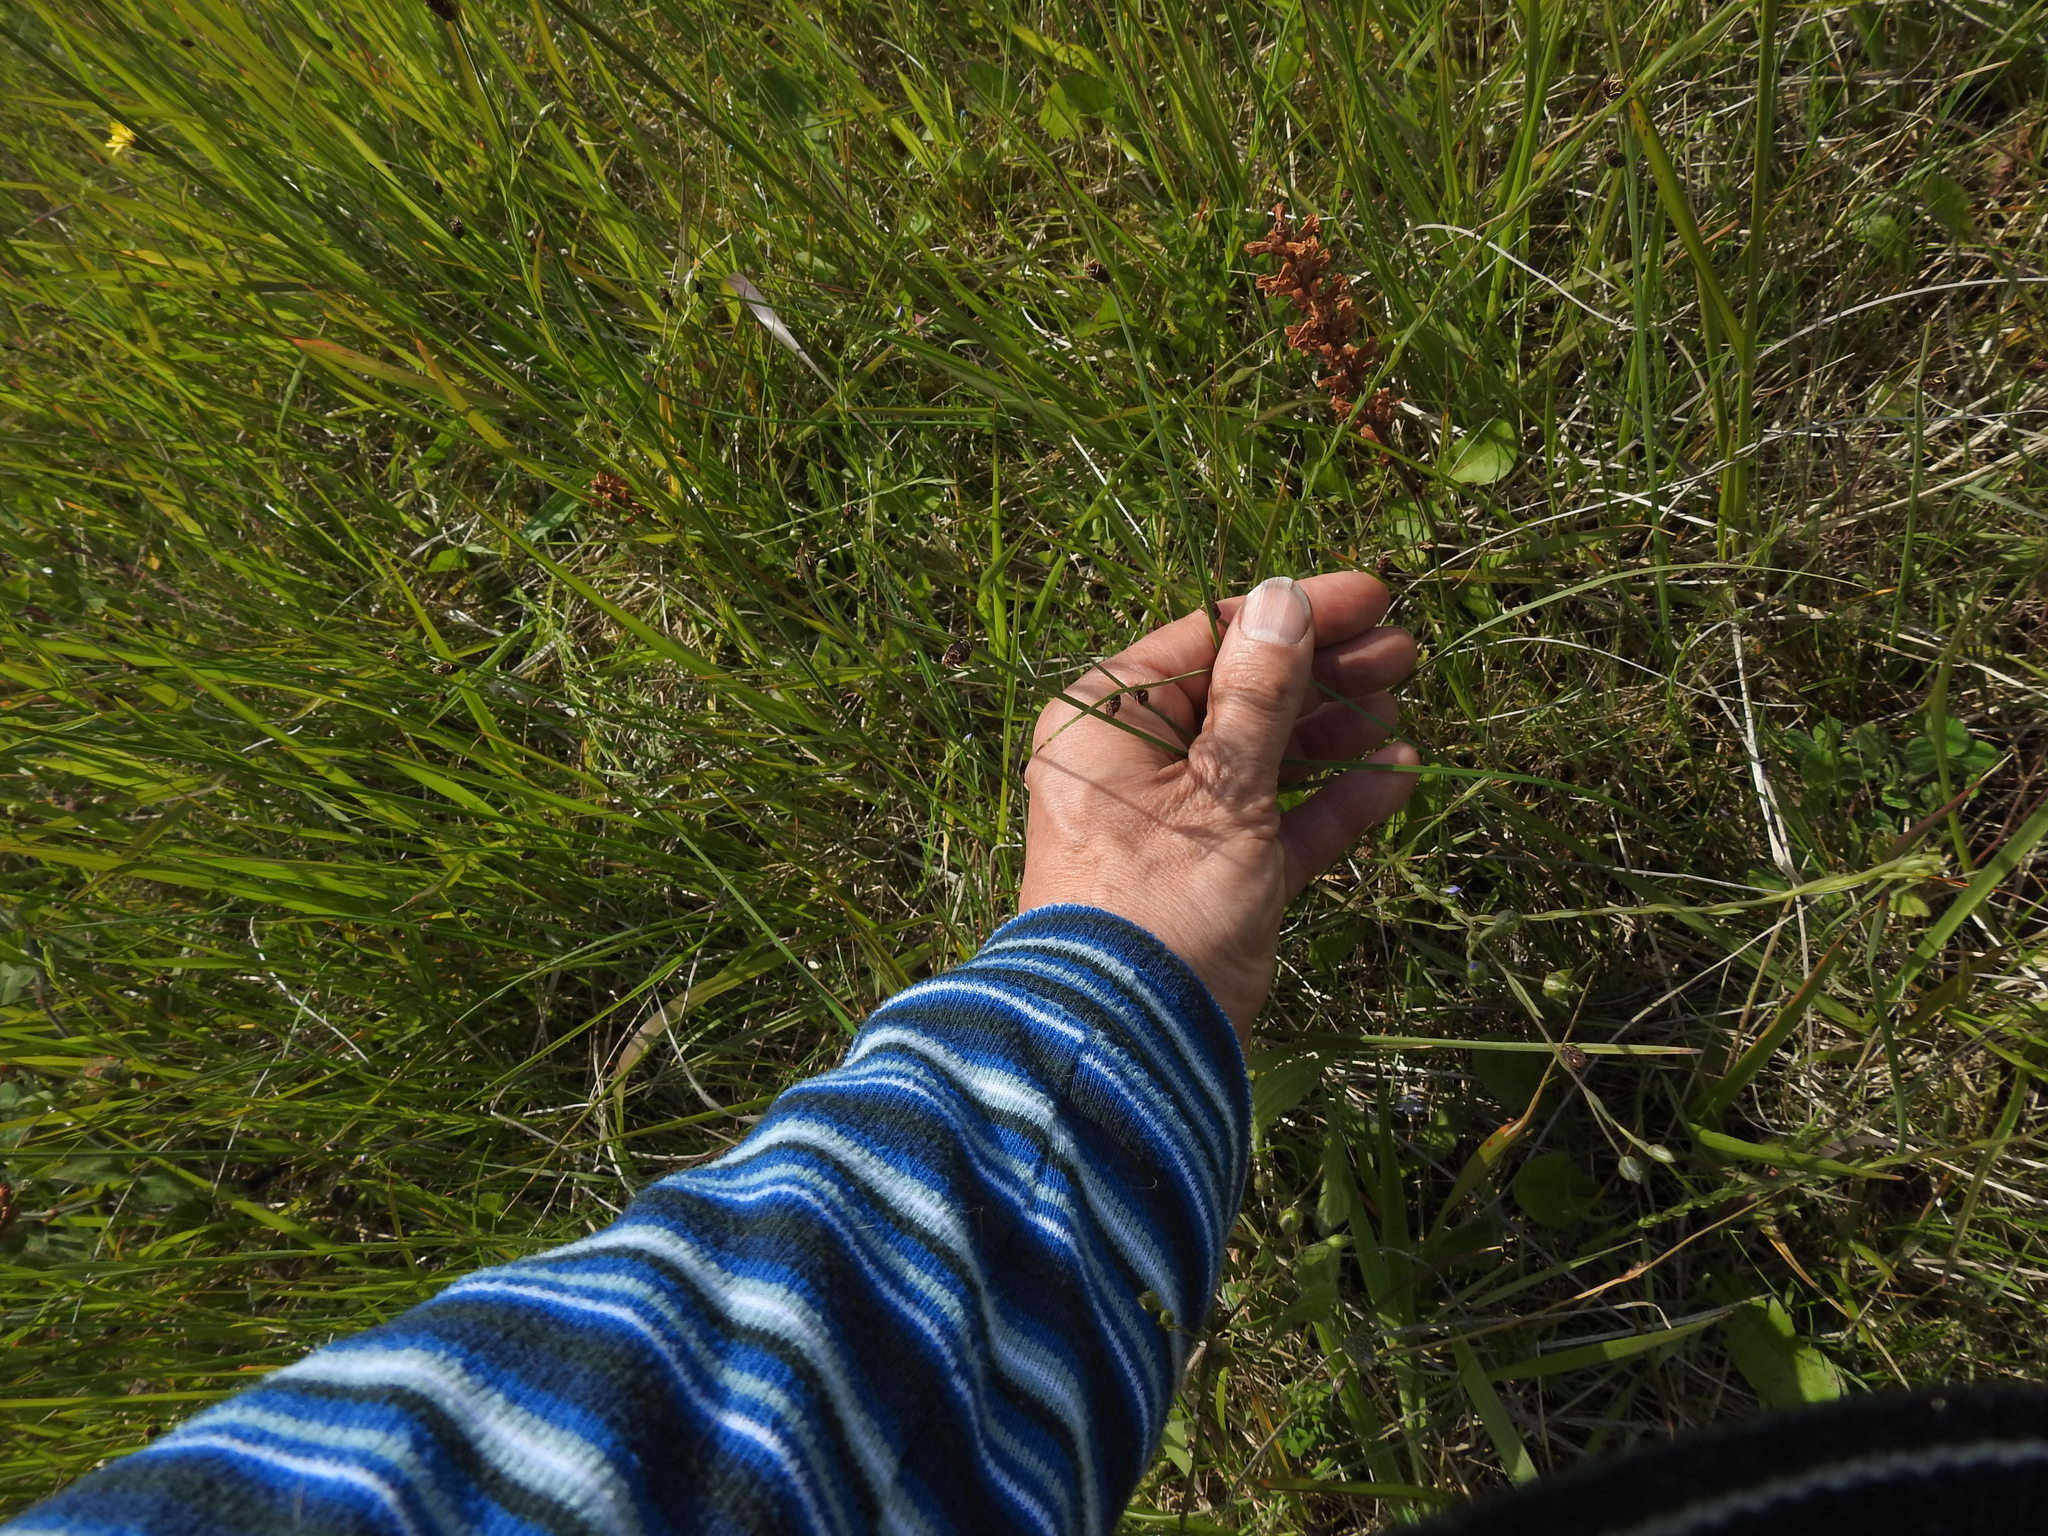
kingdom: Plantae
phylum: Tracheophyta
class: Liliopsida
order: Poales
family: Cyperaceae
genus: Schoenoplectus
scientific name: Schoenoplectus pungens
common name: Sharp club-rush
